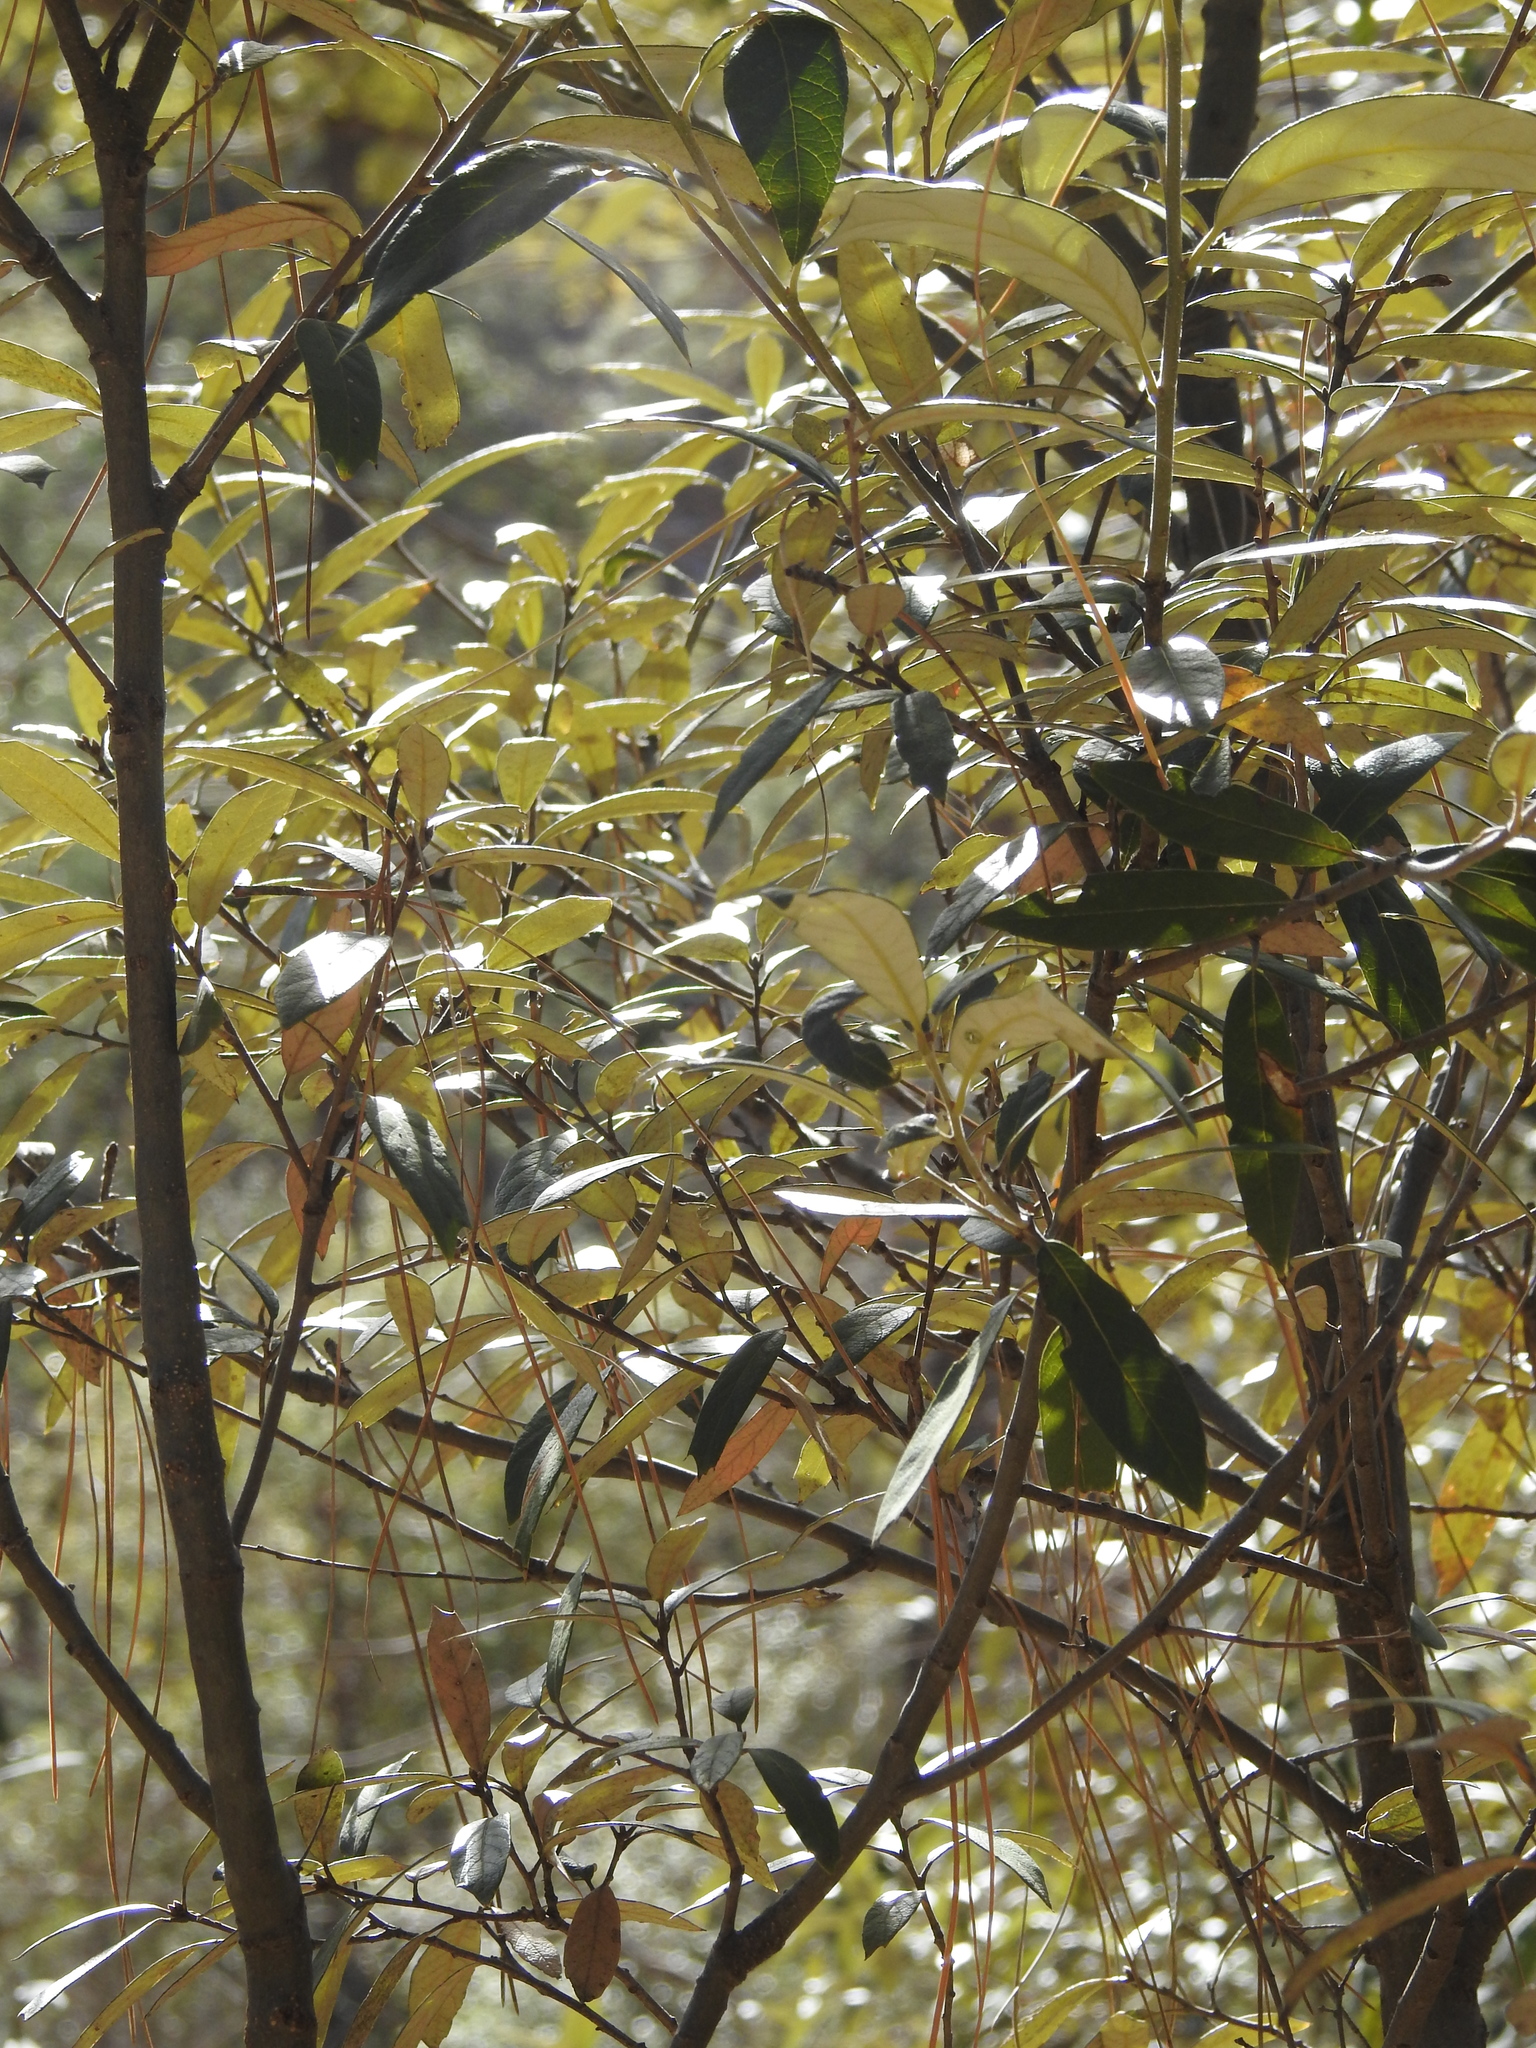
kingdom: Plantae
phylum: Tracheophyta
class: Magnoliopsida
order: Fagales
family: Fagaceae
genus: Quercus
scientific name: Quercus hypoleucoides
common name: Silverleaf oak
